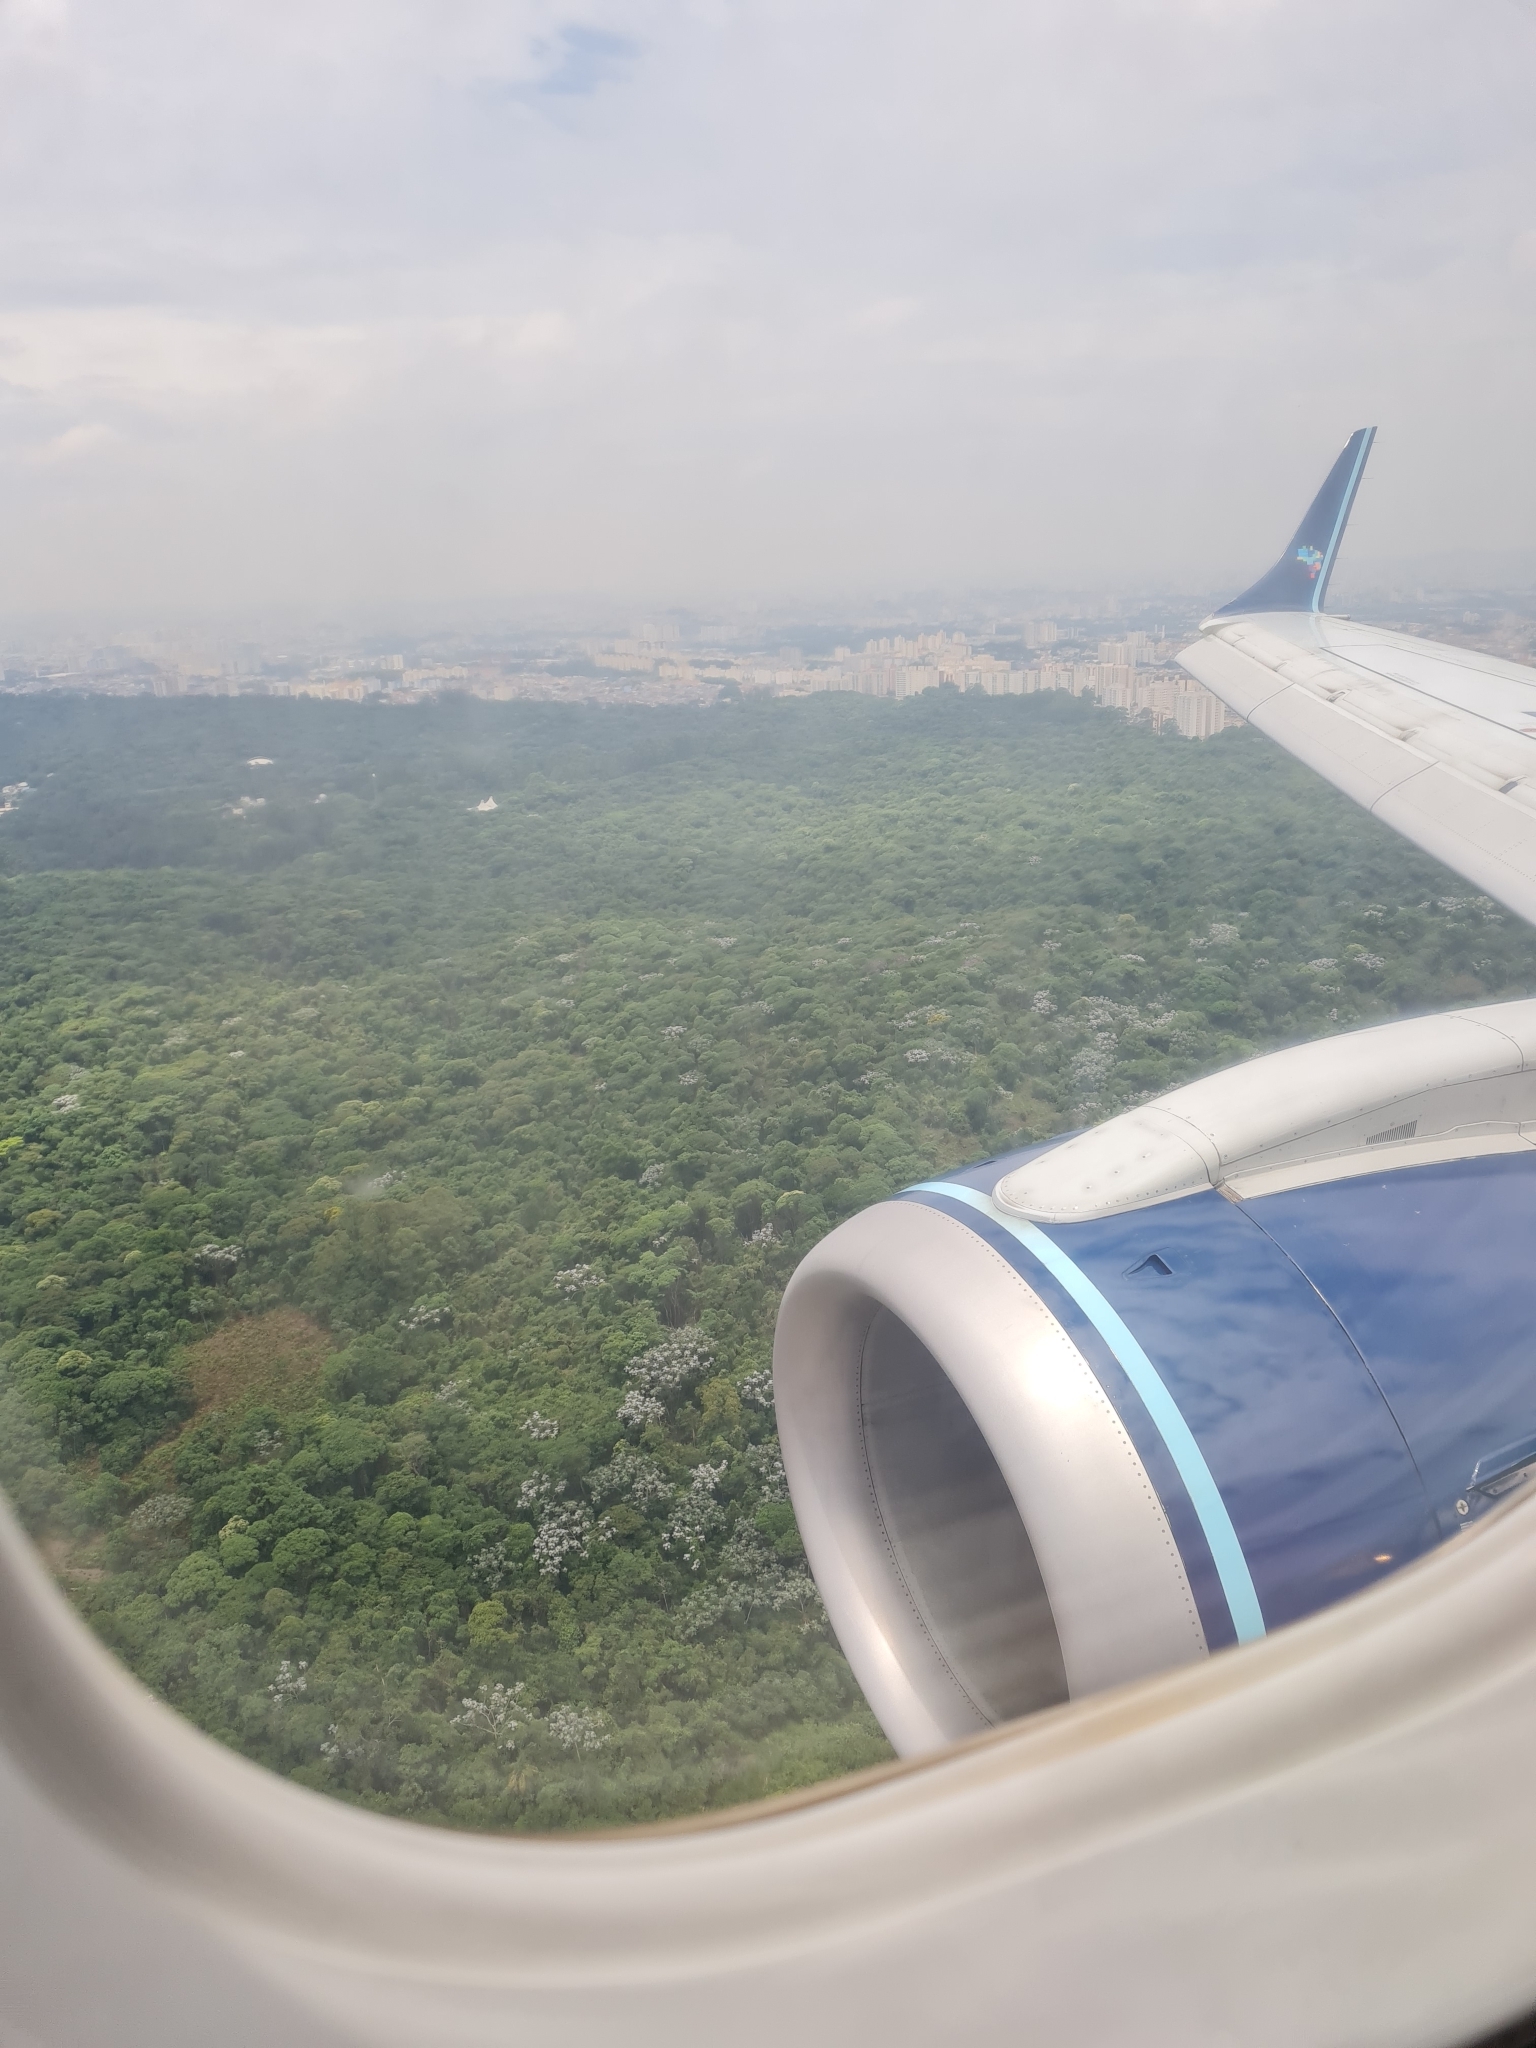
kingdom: Plantae
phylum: Tracheophyta
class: Magnoliopsida
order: Rosales
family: Urticaceae
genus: Cecropia
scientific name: Cecropia hololeuca
